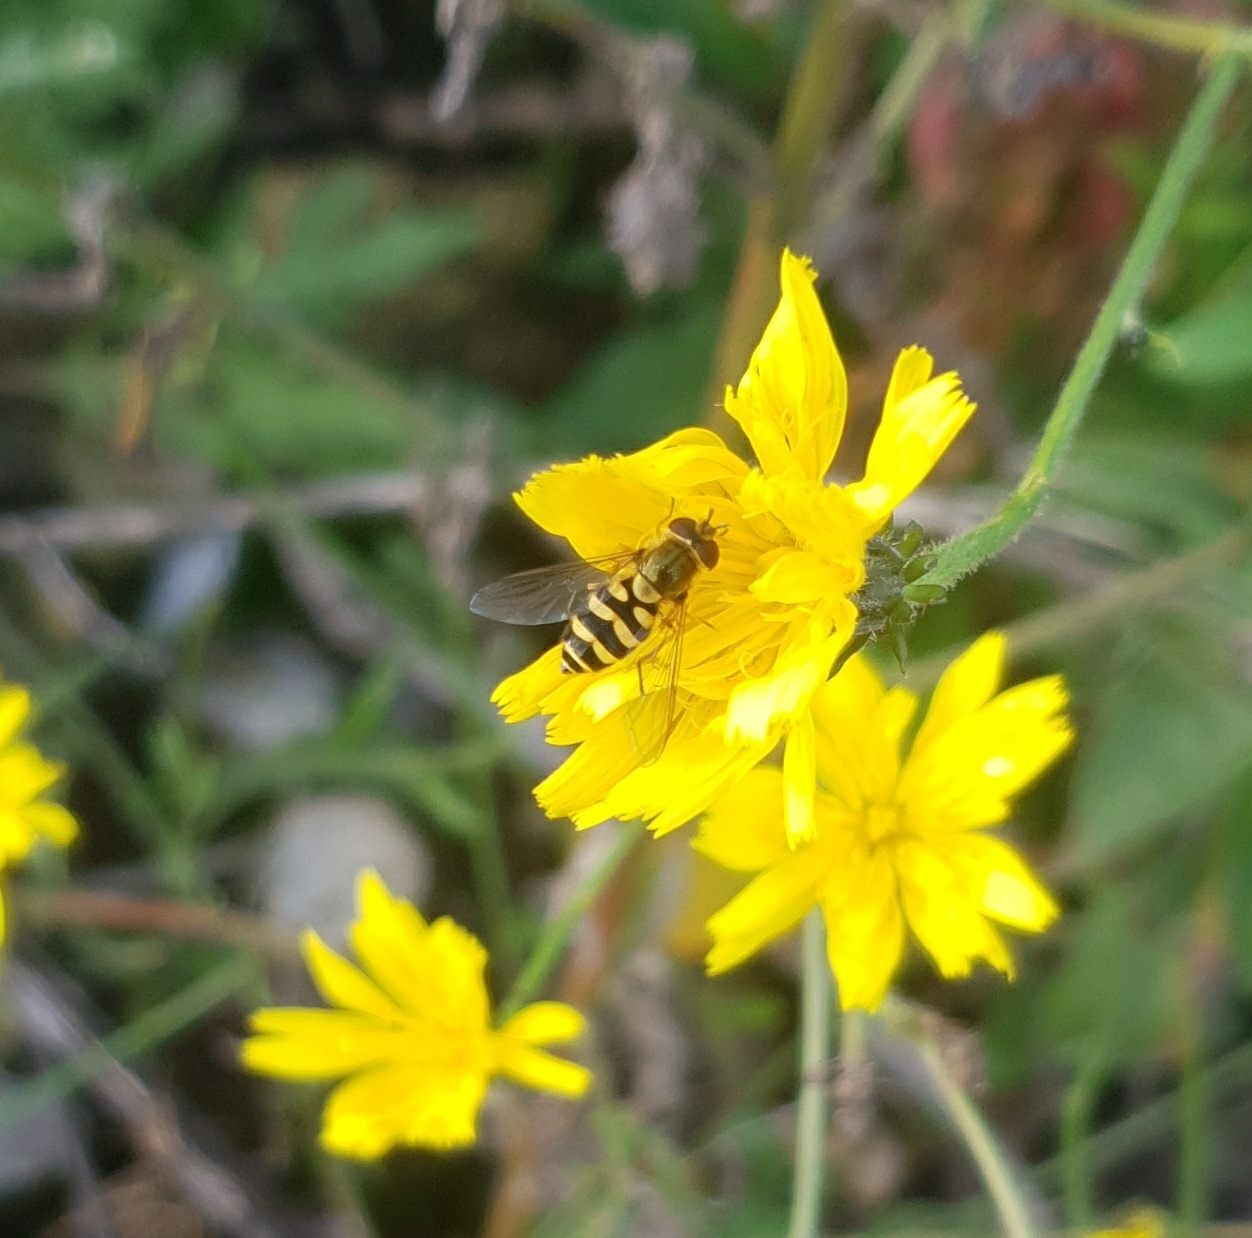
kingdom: Animalia
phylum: Arthropoda
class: Insecta
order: Diptera
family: Syrphidae
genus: Syrphus
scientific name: Syrphus
